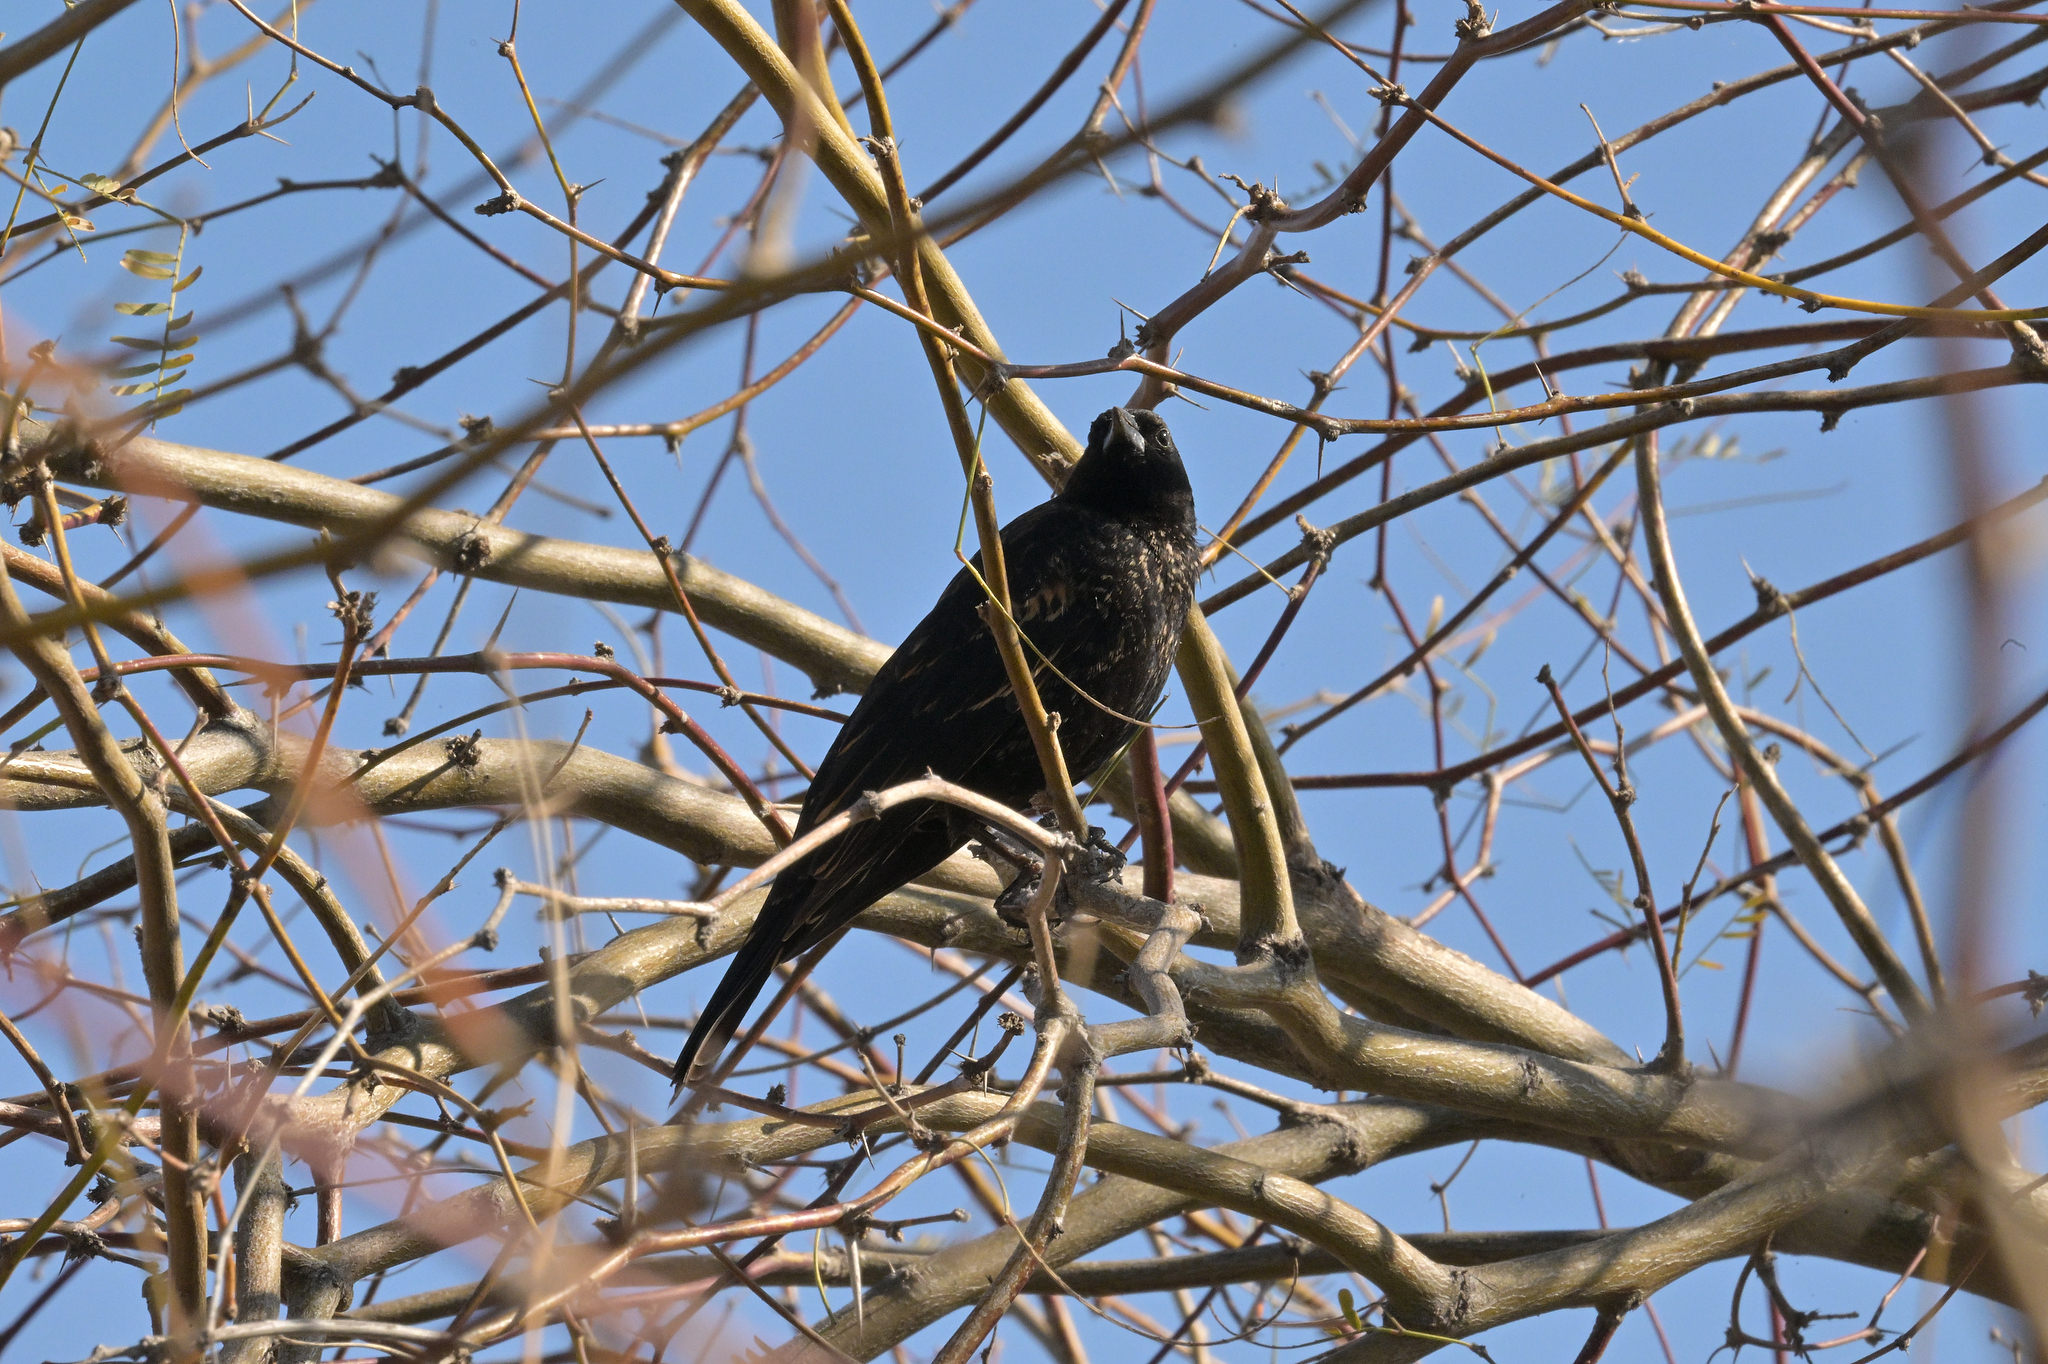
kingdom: Animalia
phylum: Chordata
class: Aves
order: Passeriformes
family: Icteridae
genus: Agelaius
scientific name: Agelaius phoeniceus
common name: Red-winged blackbird
